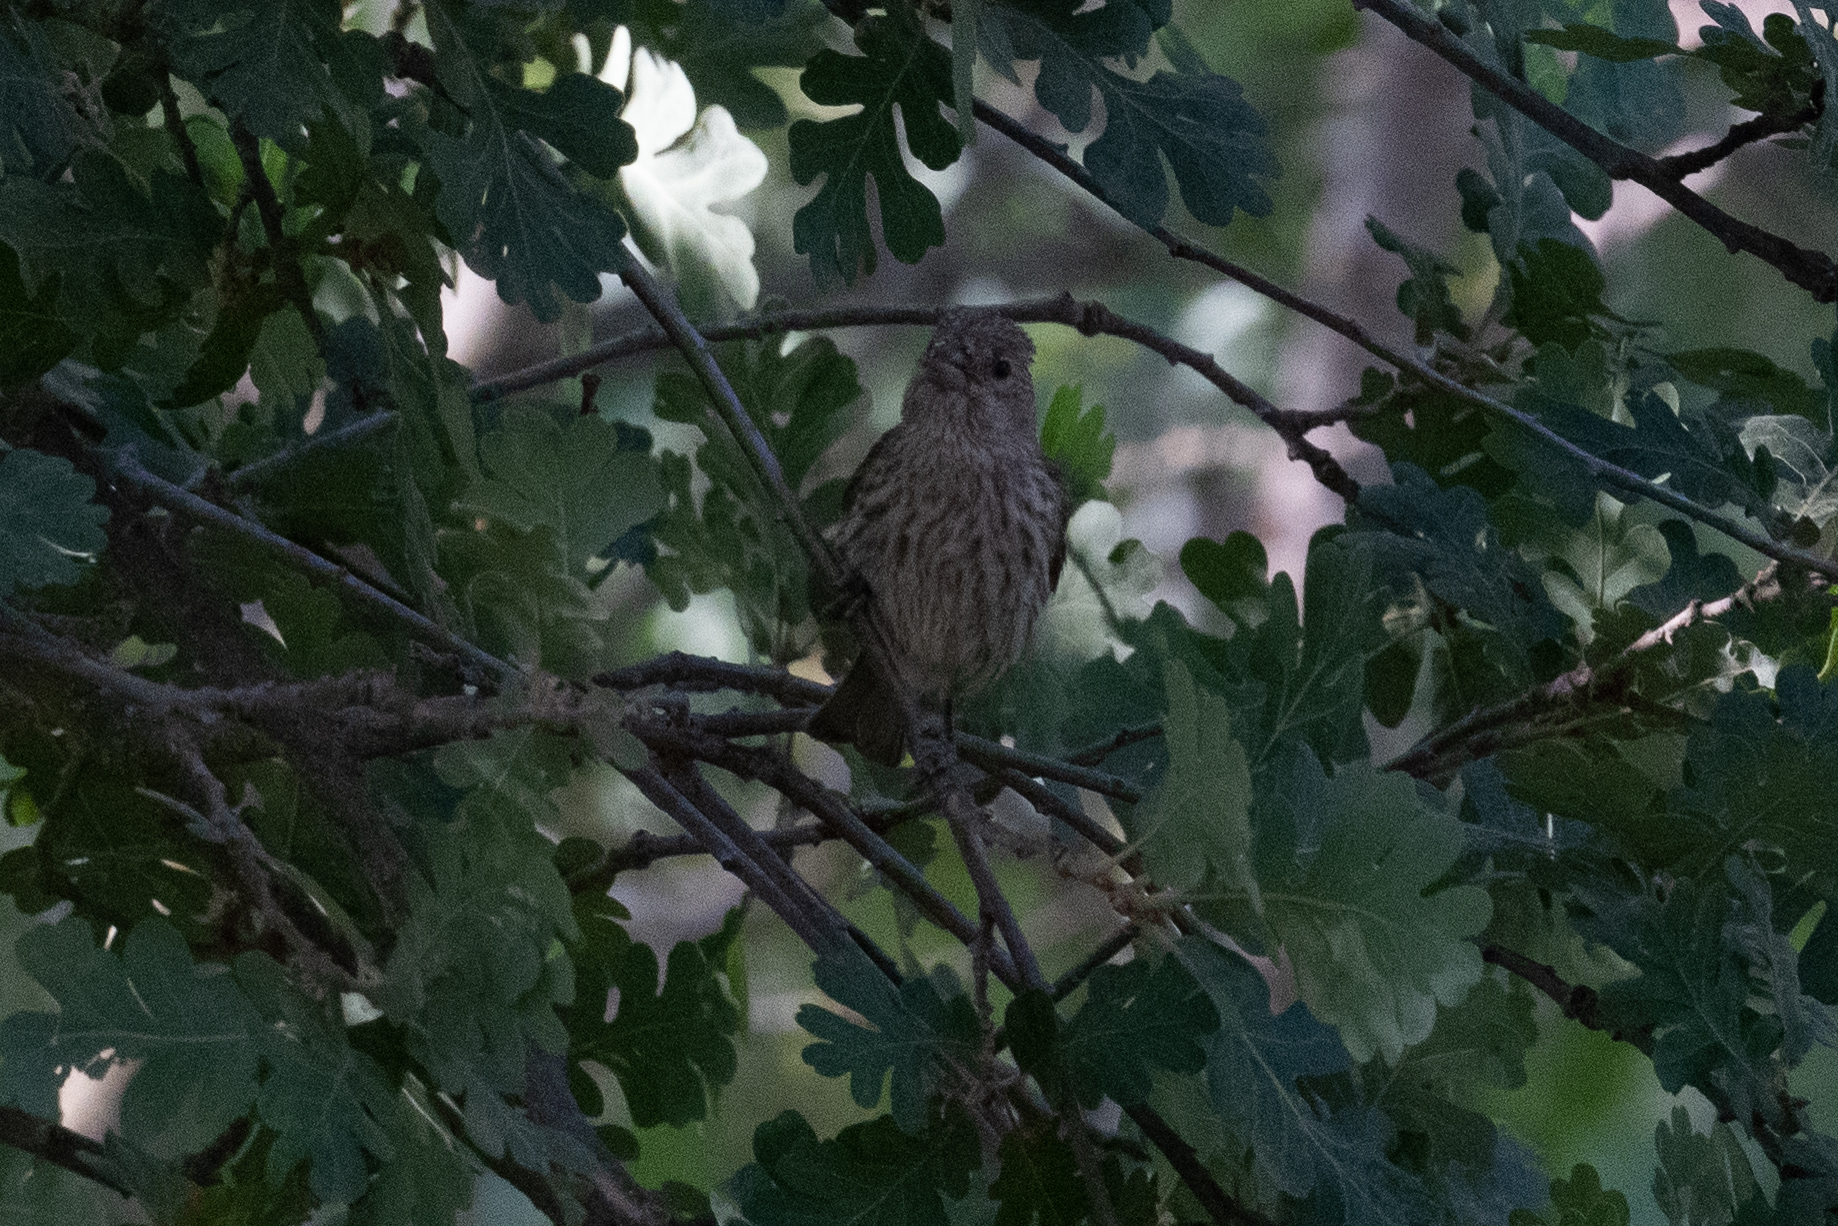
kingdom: Animalia
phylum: Chordata
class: Aves
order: Passeriformes
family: Fringillidae
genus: Haemorhous
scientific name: Haemorhous mexicanus
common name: House finch
